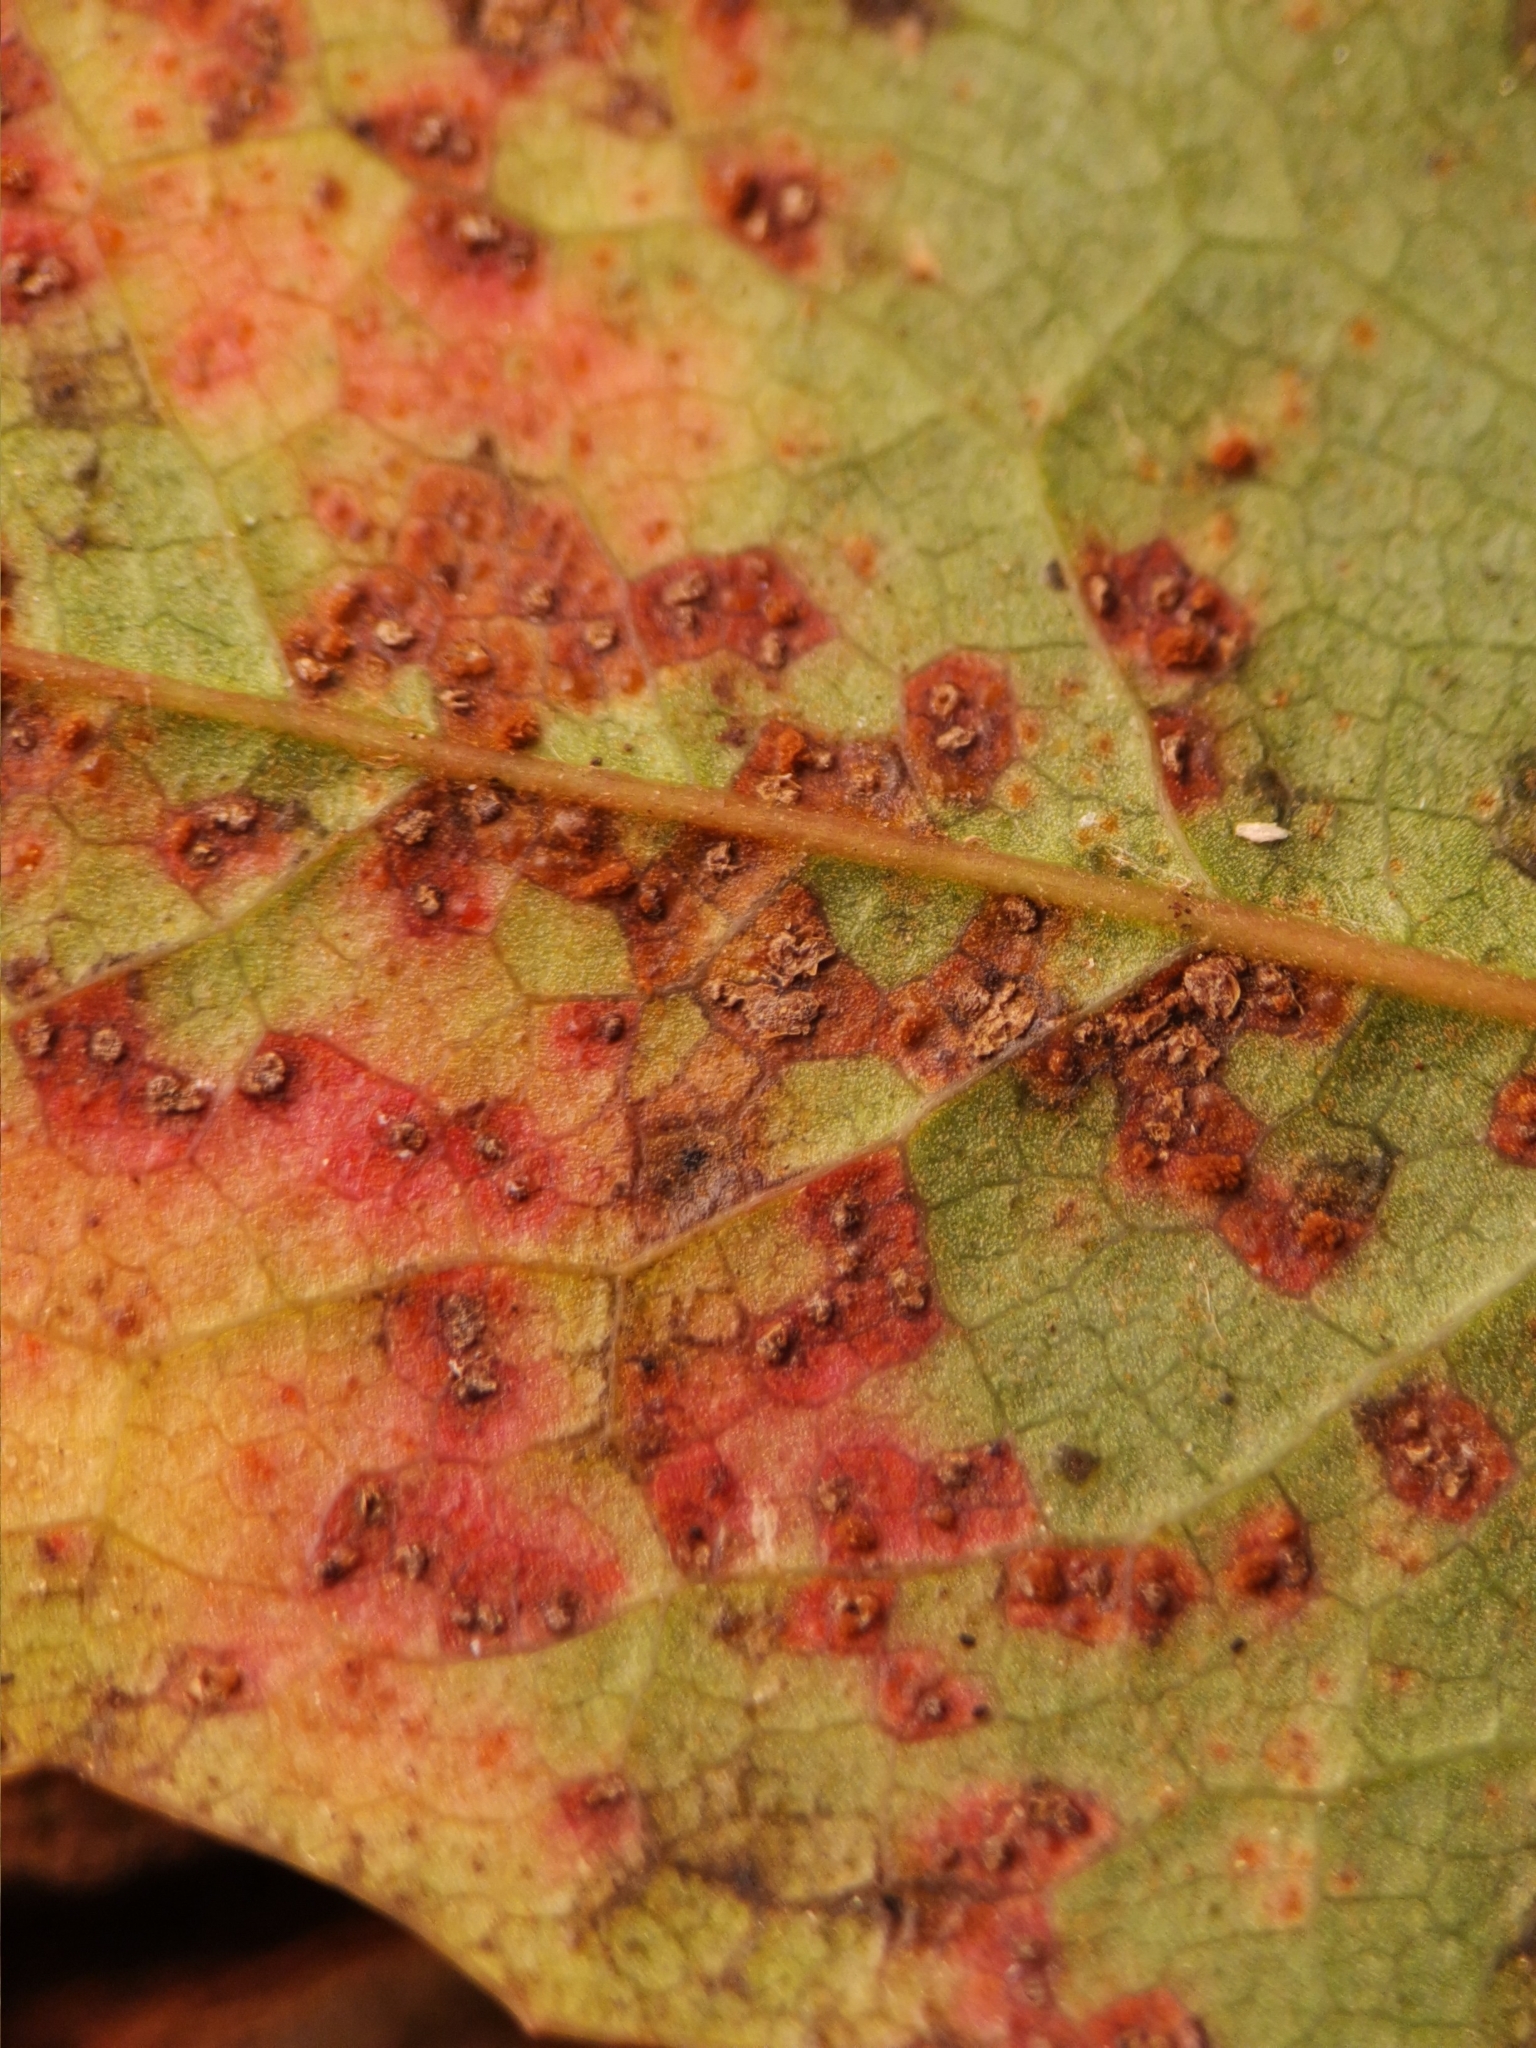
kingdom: Fungi
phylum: Basidiomycota
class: Pucciniomycetes
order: Pucciniales
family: Pucciniaceae
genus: Cumminsiella
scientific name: Cumminsiella mirabilissima
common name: Mahonia rust
